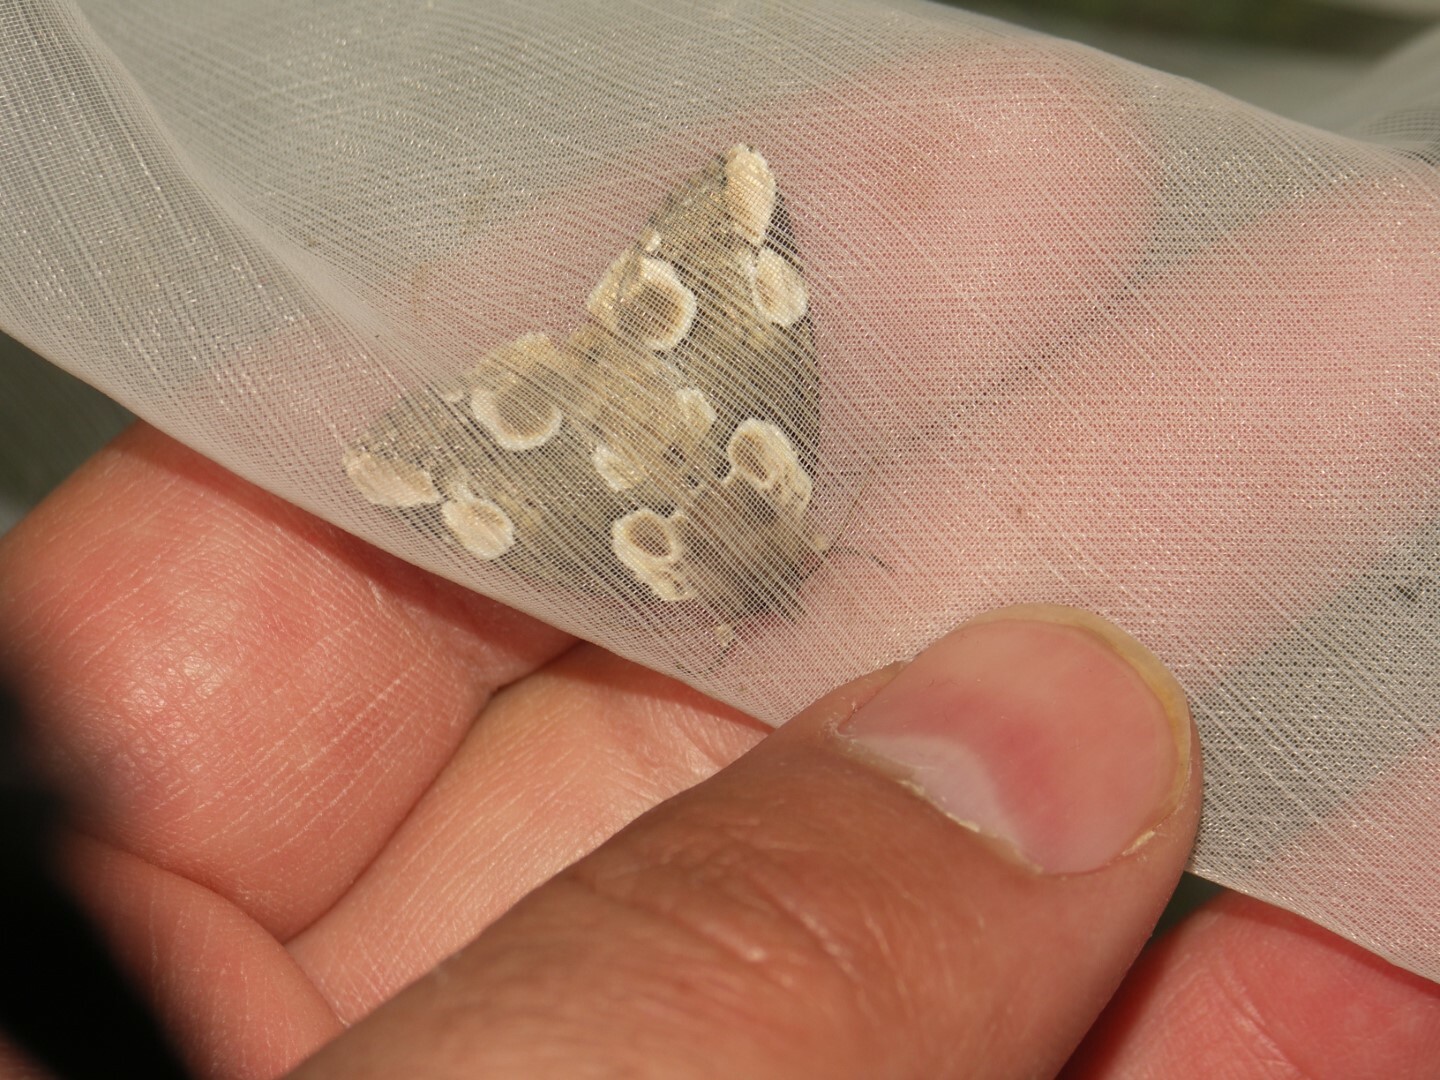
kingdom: Animalia
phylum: Arthropoda
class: Insecta
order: Lepidoptera
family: Drepanidae
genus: Thyatira
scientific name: Thyatira batis
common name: Peach blossom
